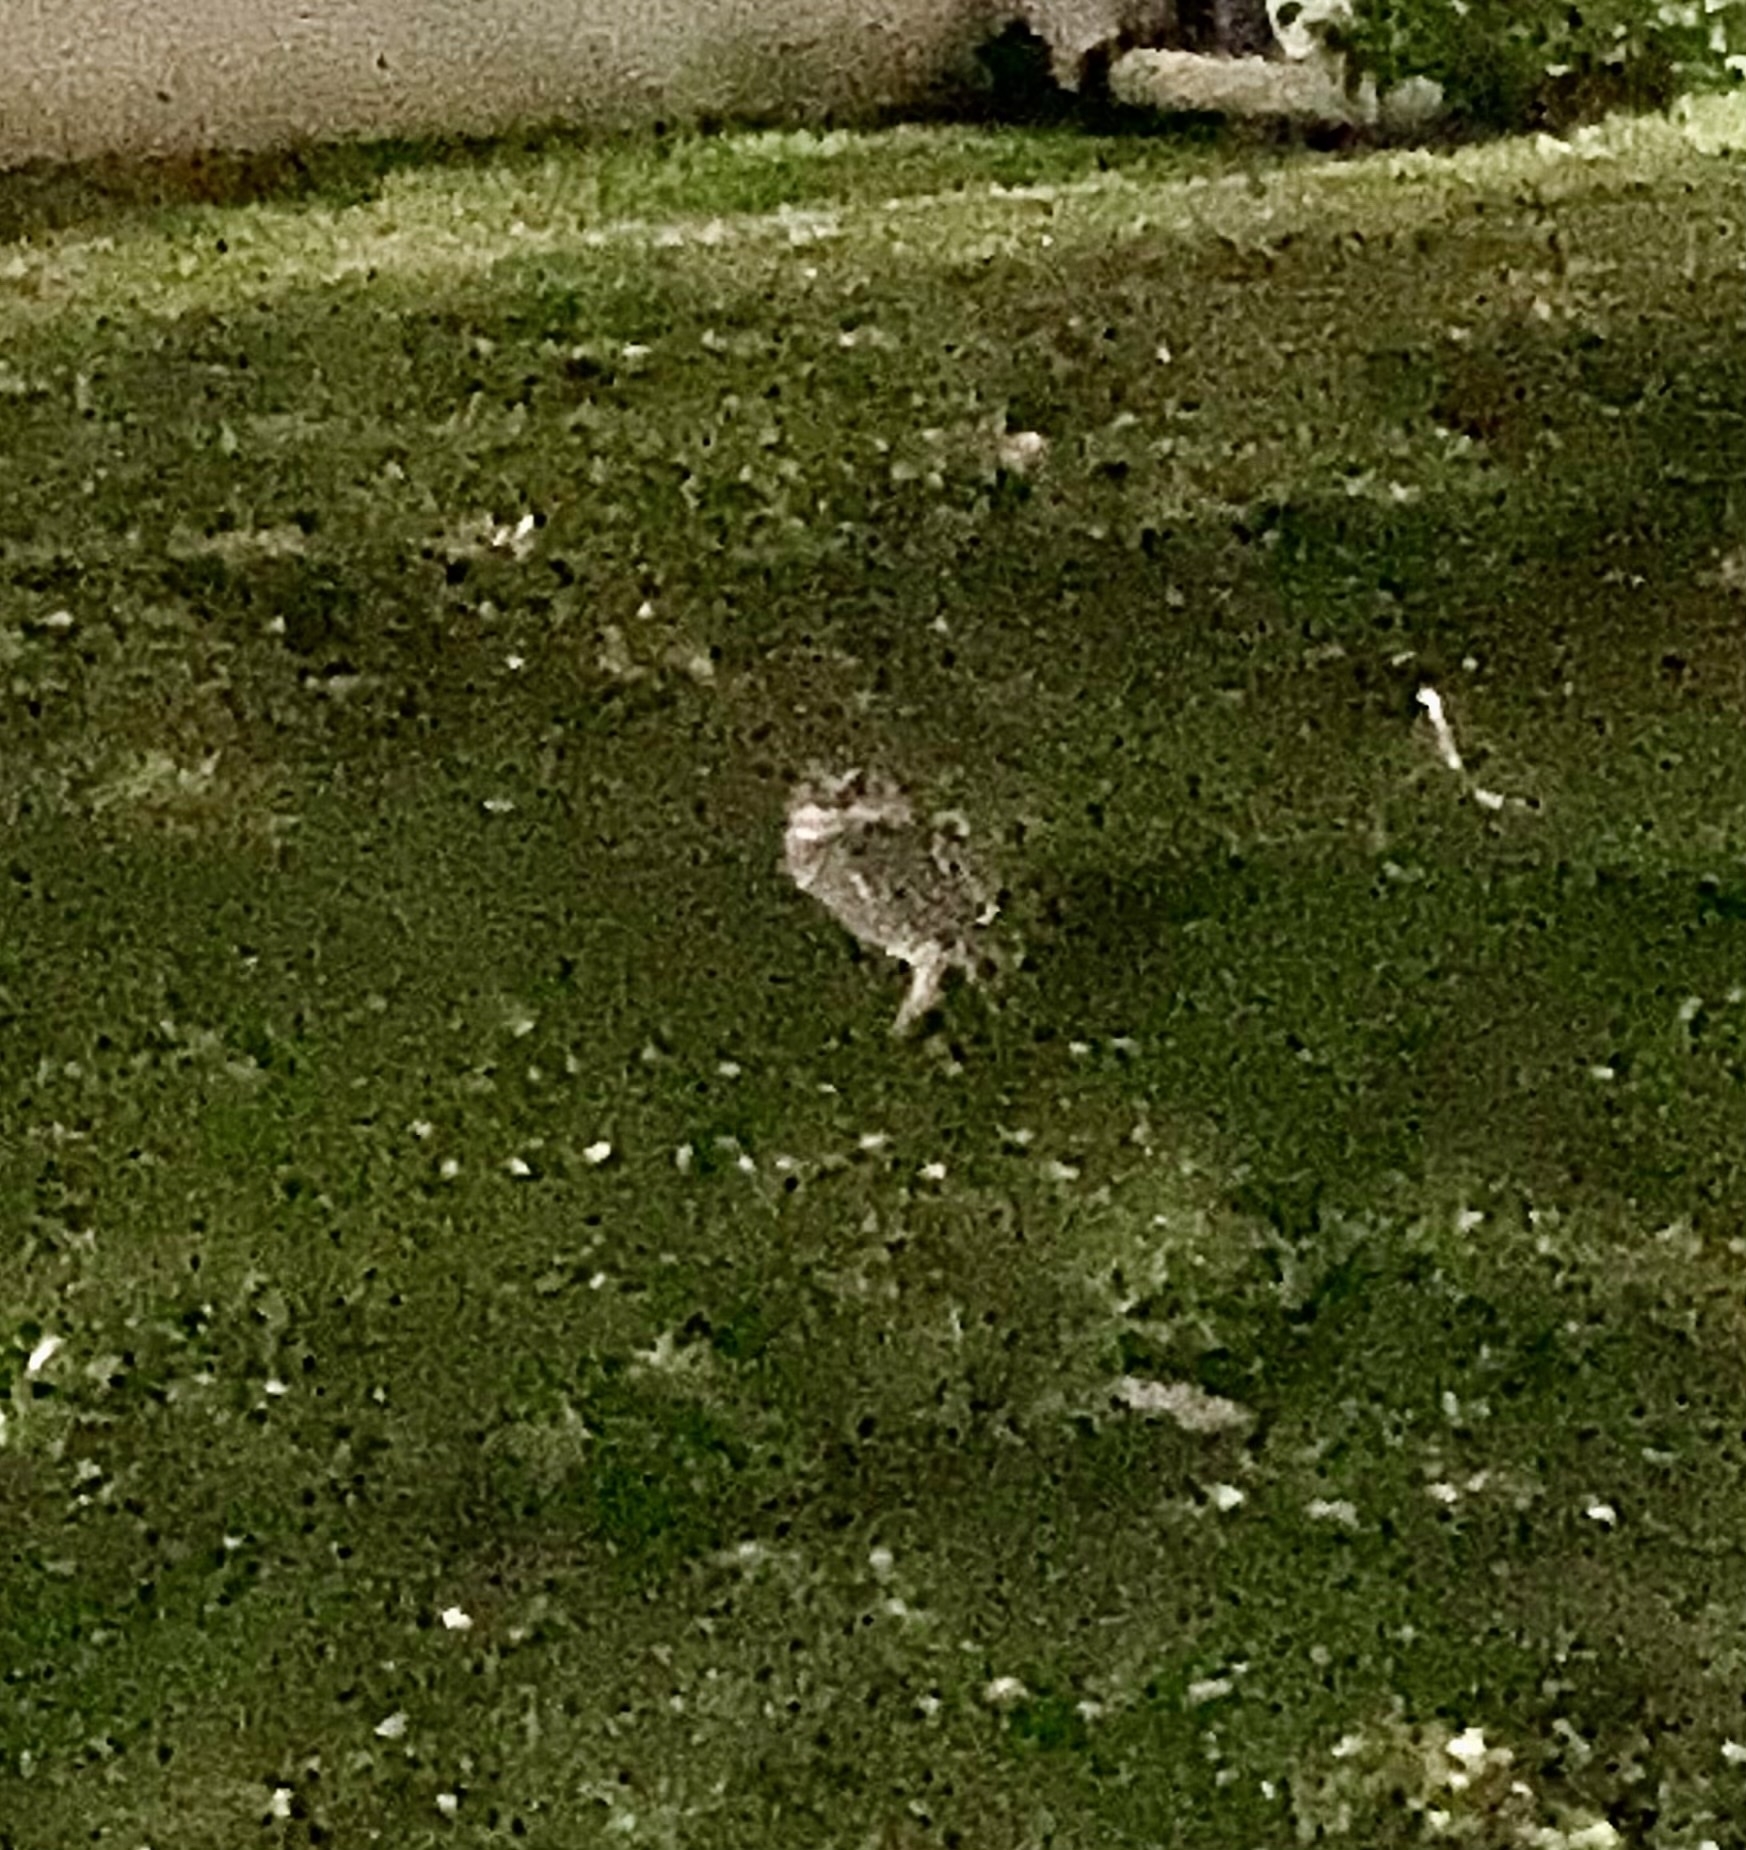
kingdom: Animalia
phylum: Chordata
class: Aves
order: Strigiformes
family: Strigidae
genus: Athene
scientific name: Athene cunicularia
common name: Burrowing owl
